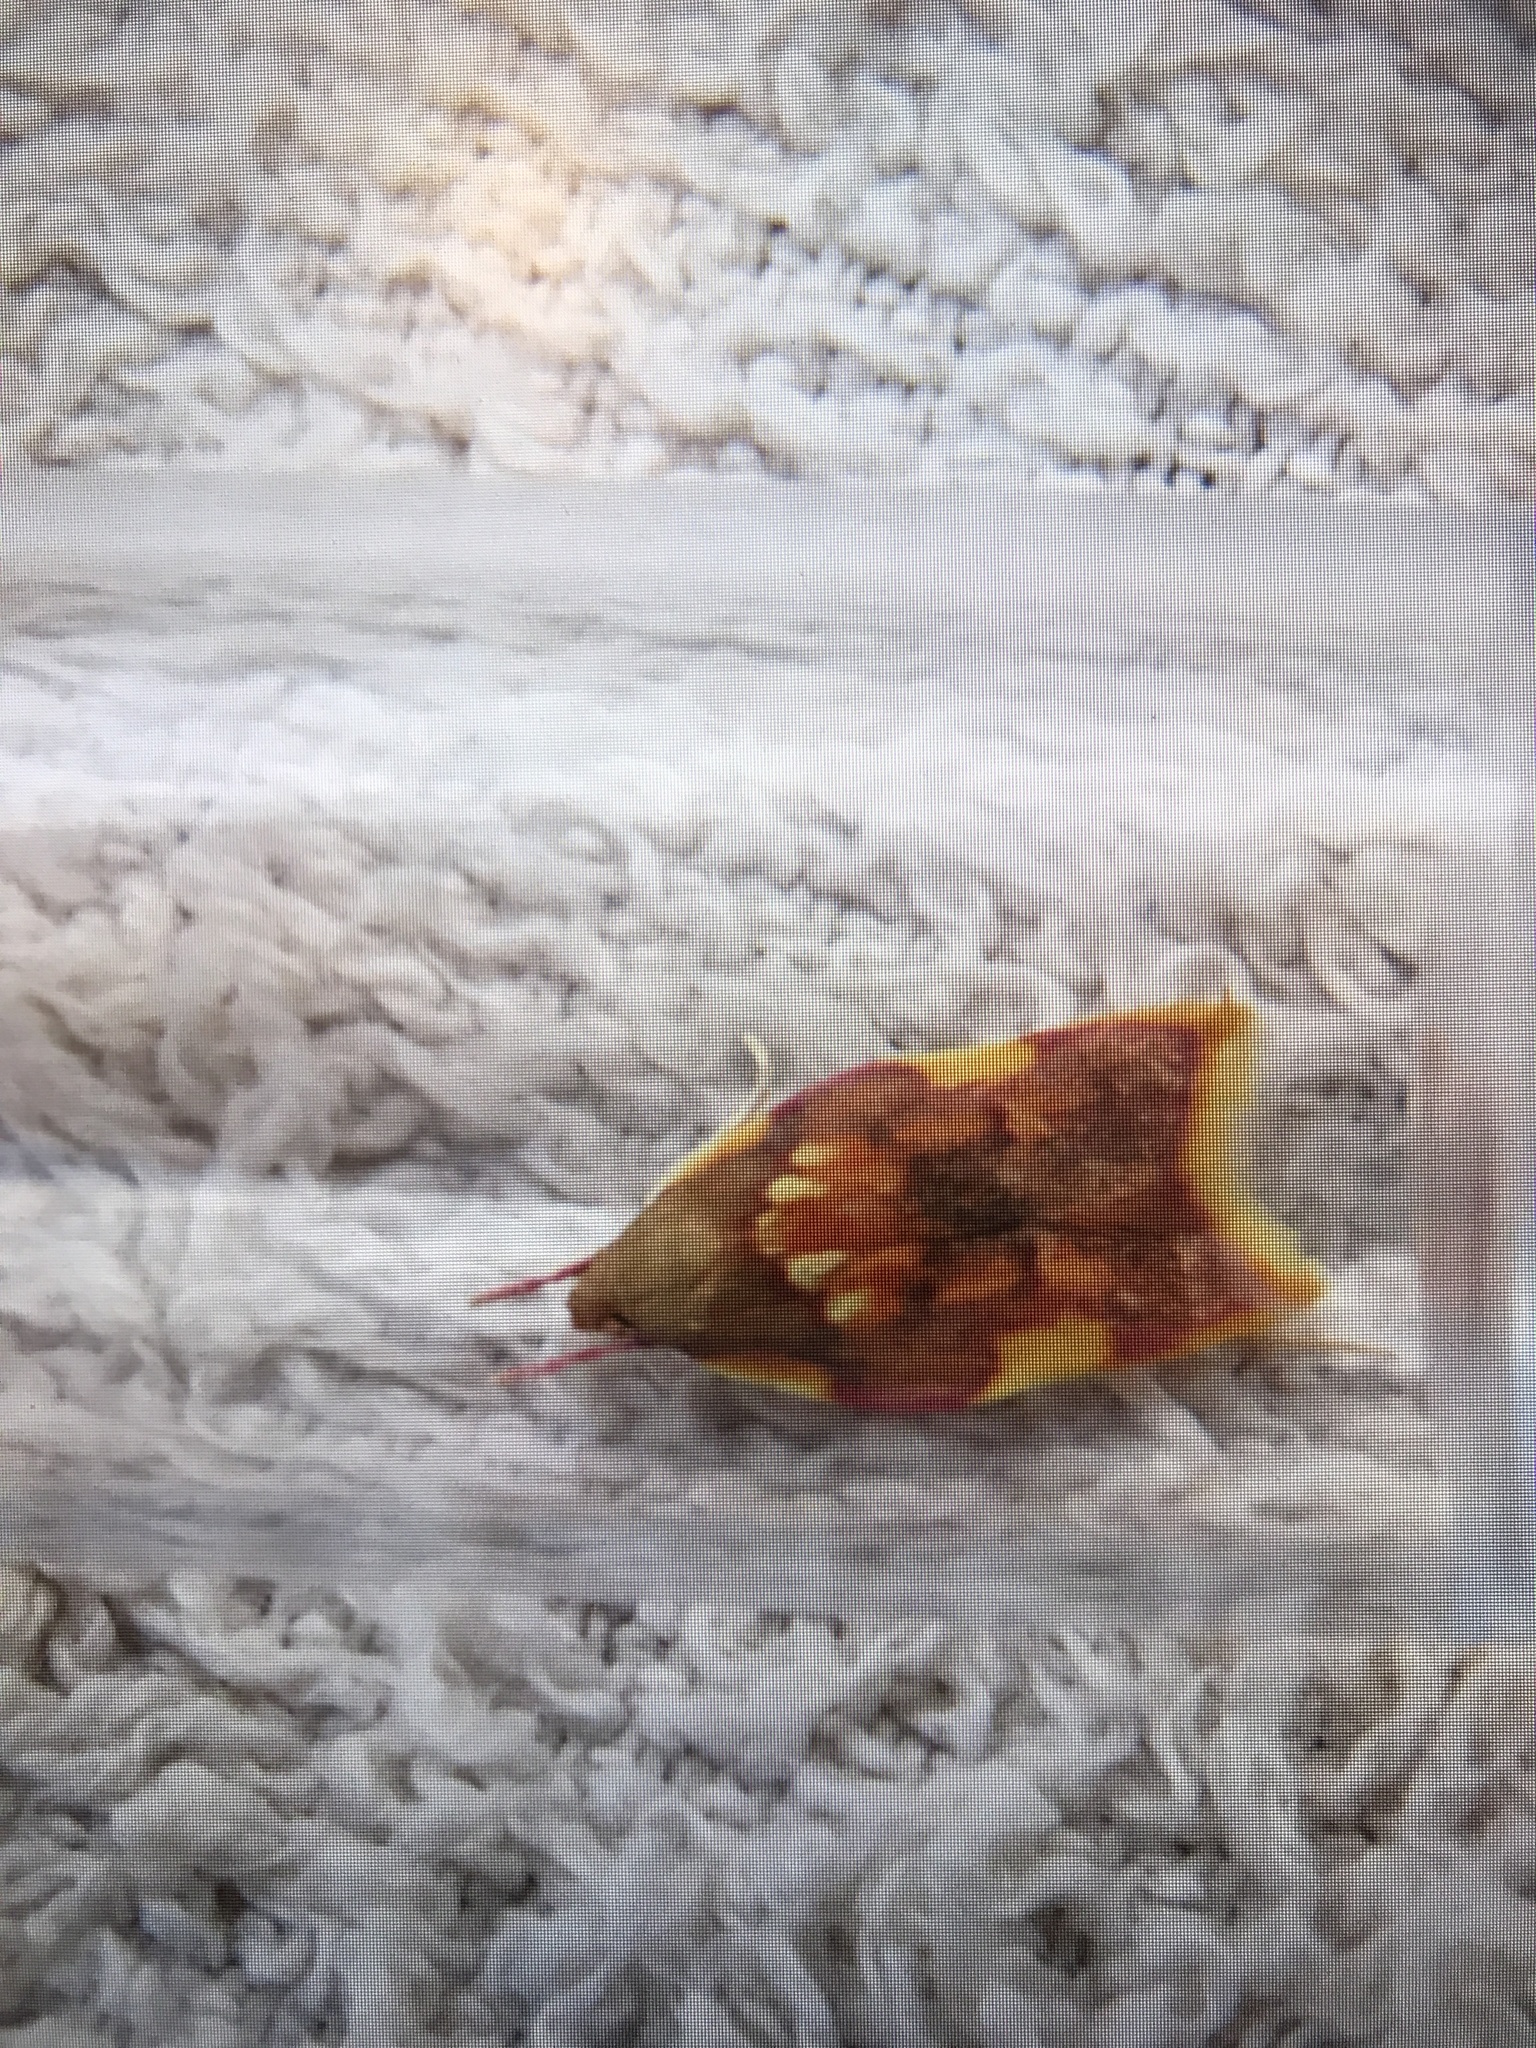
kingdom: Animalia
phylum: Arthropoda
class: Insecta
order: Lepidoptera
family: Peleopodidae
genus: Carcina
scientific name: Carcina quercana
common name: Moth
